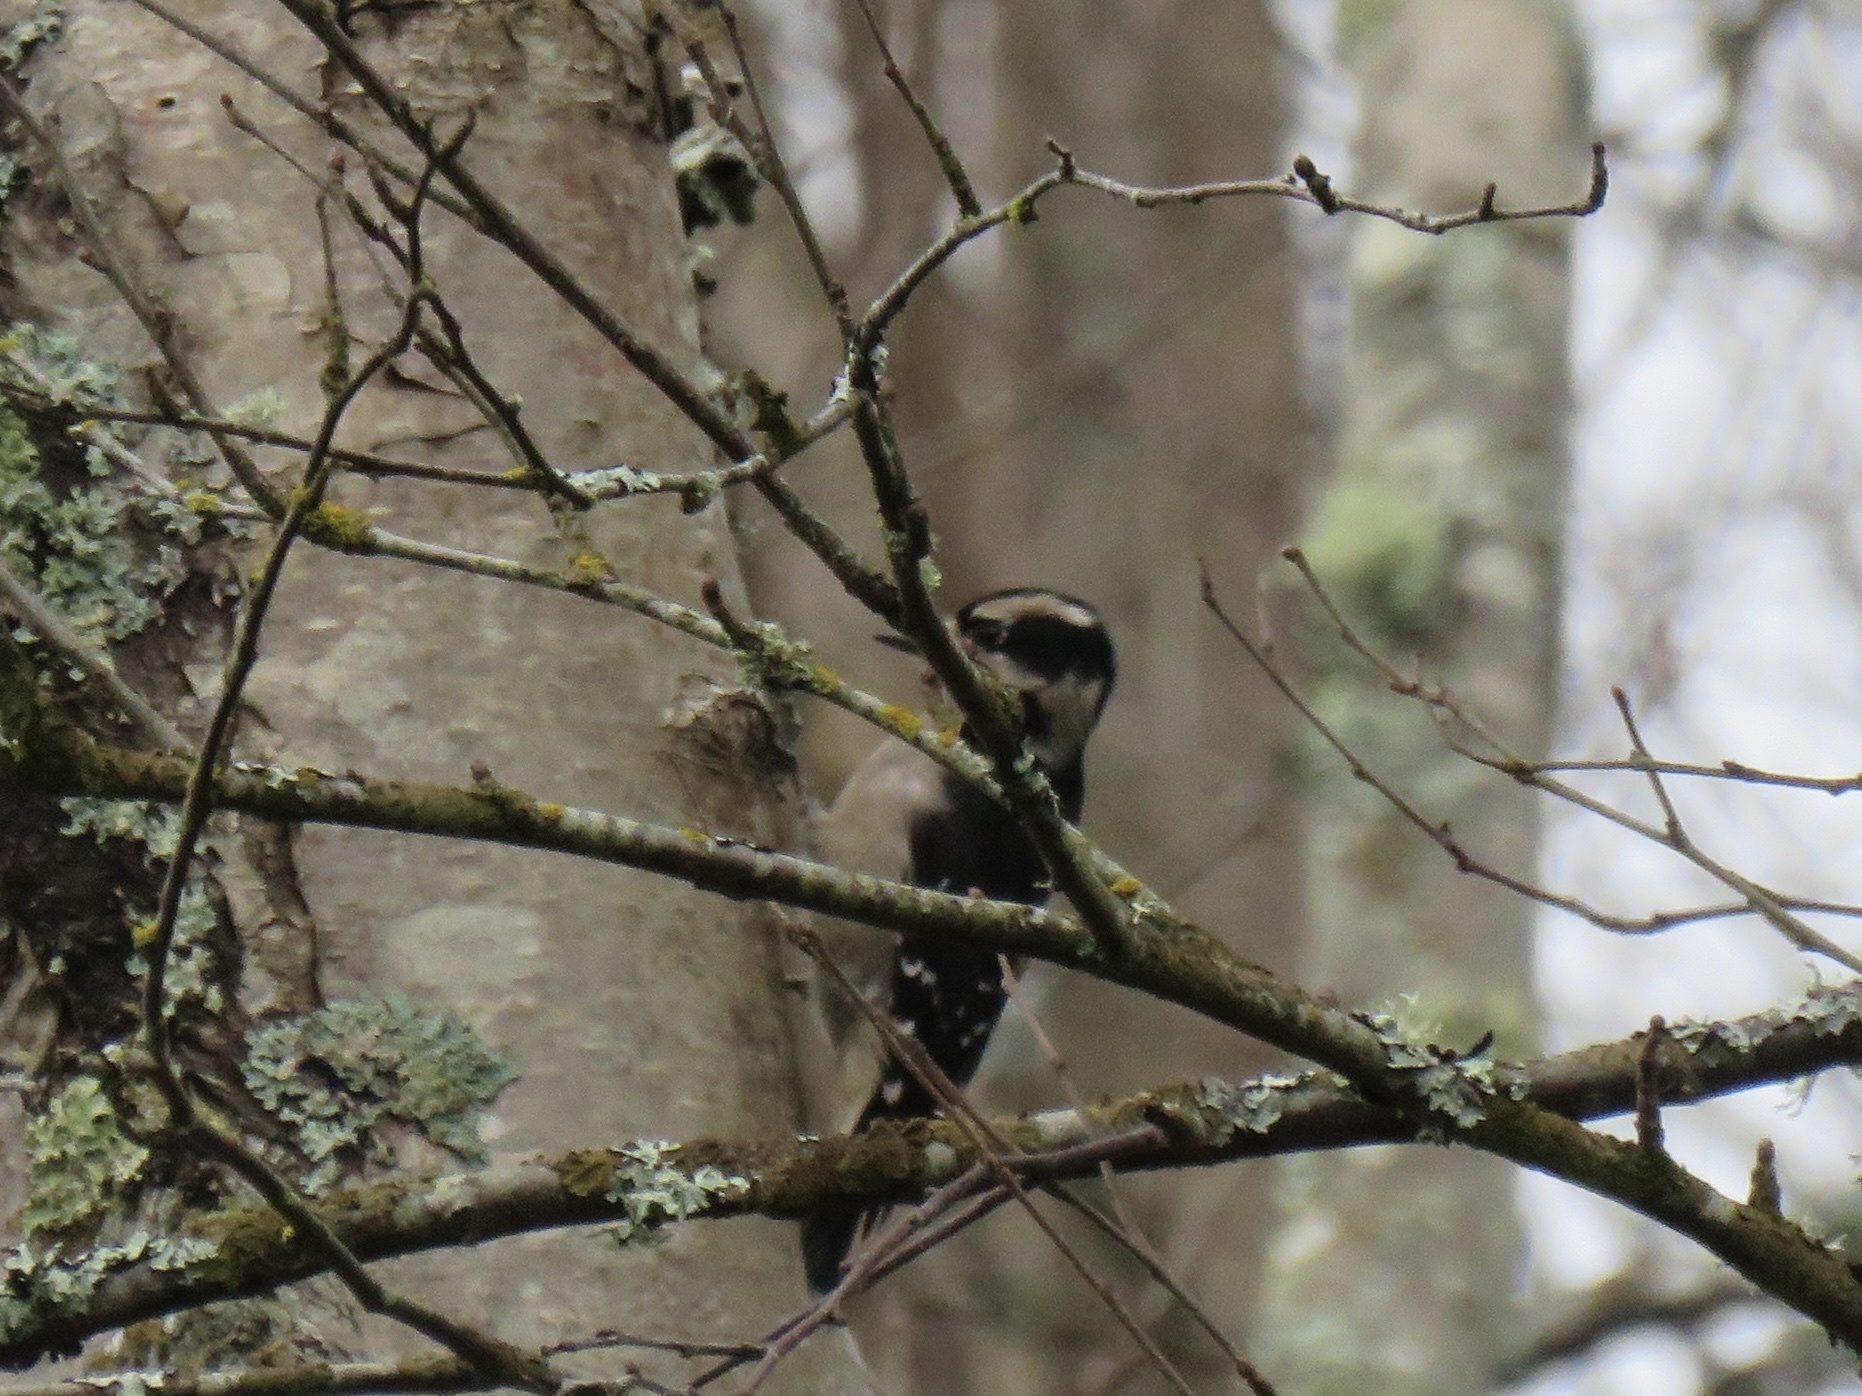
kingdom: Animalia
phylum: Chordata
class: Aves
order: Piciformes
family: Picidae
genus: Dryobates
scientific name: Dryobates pubescens
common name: Downy woodpecker
